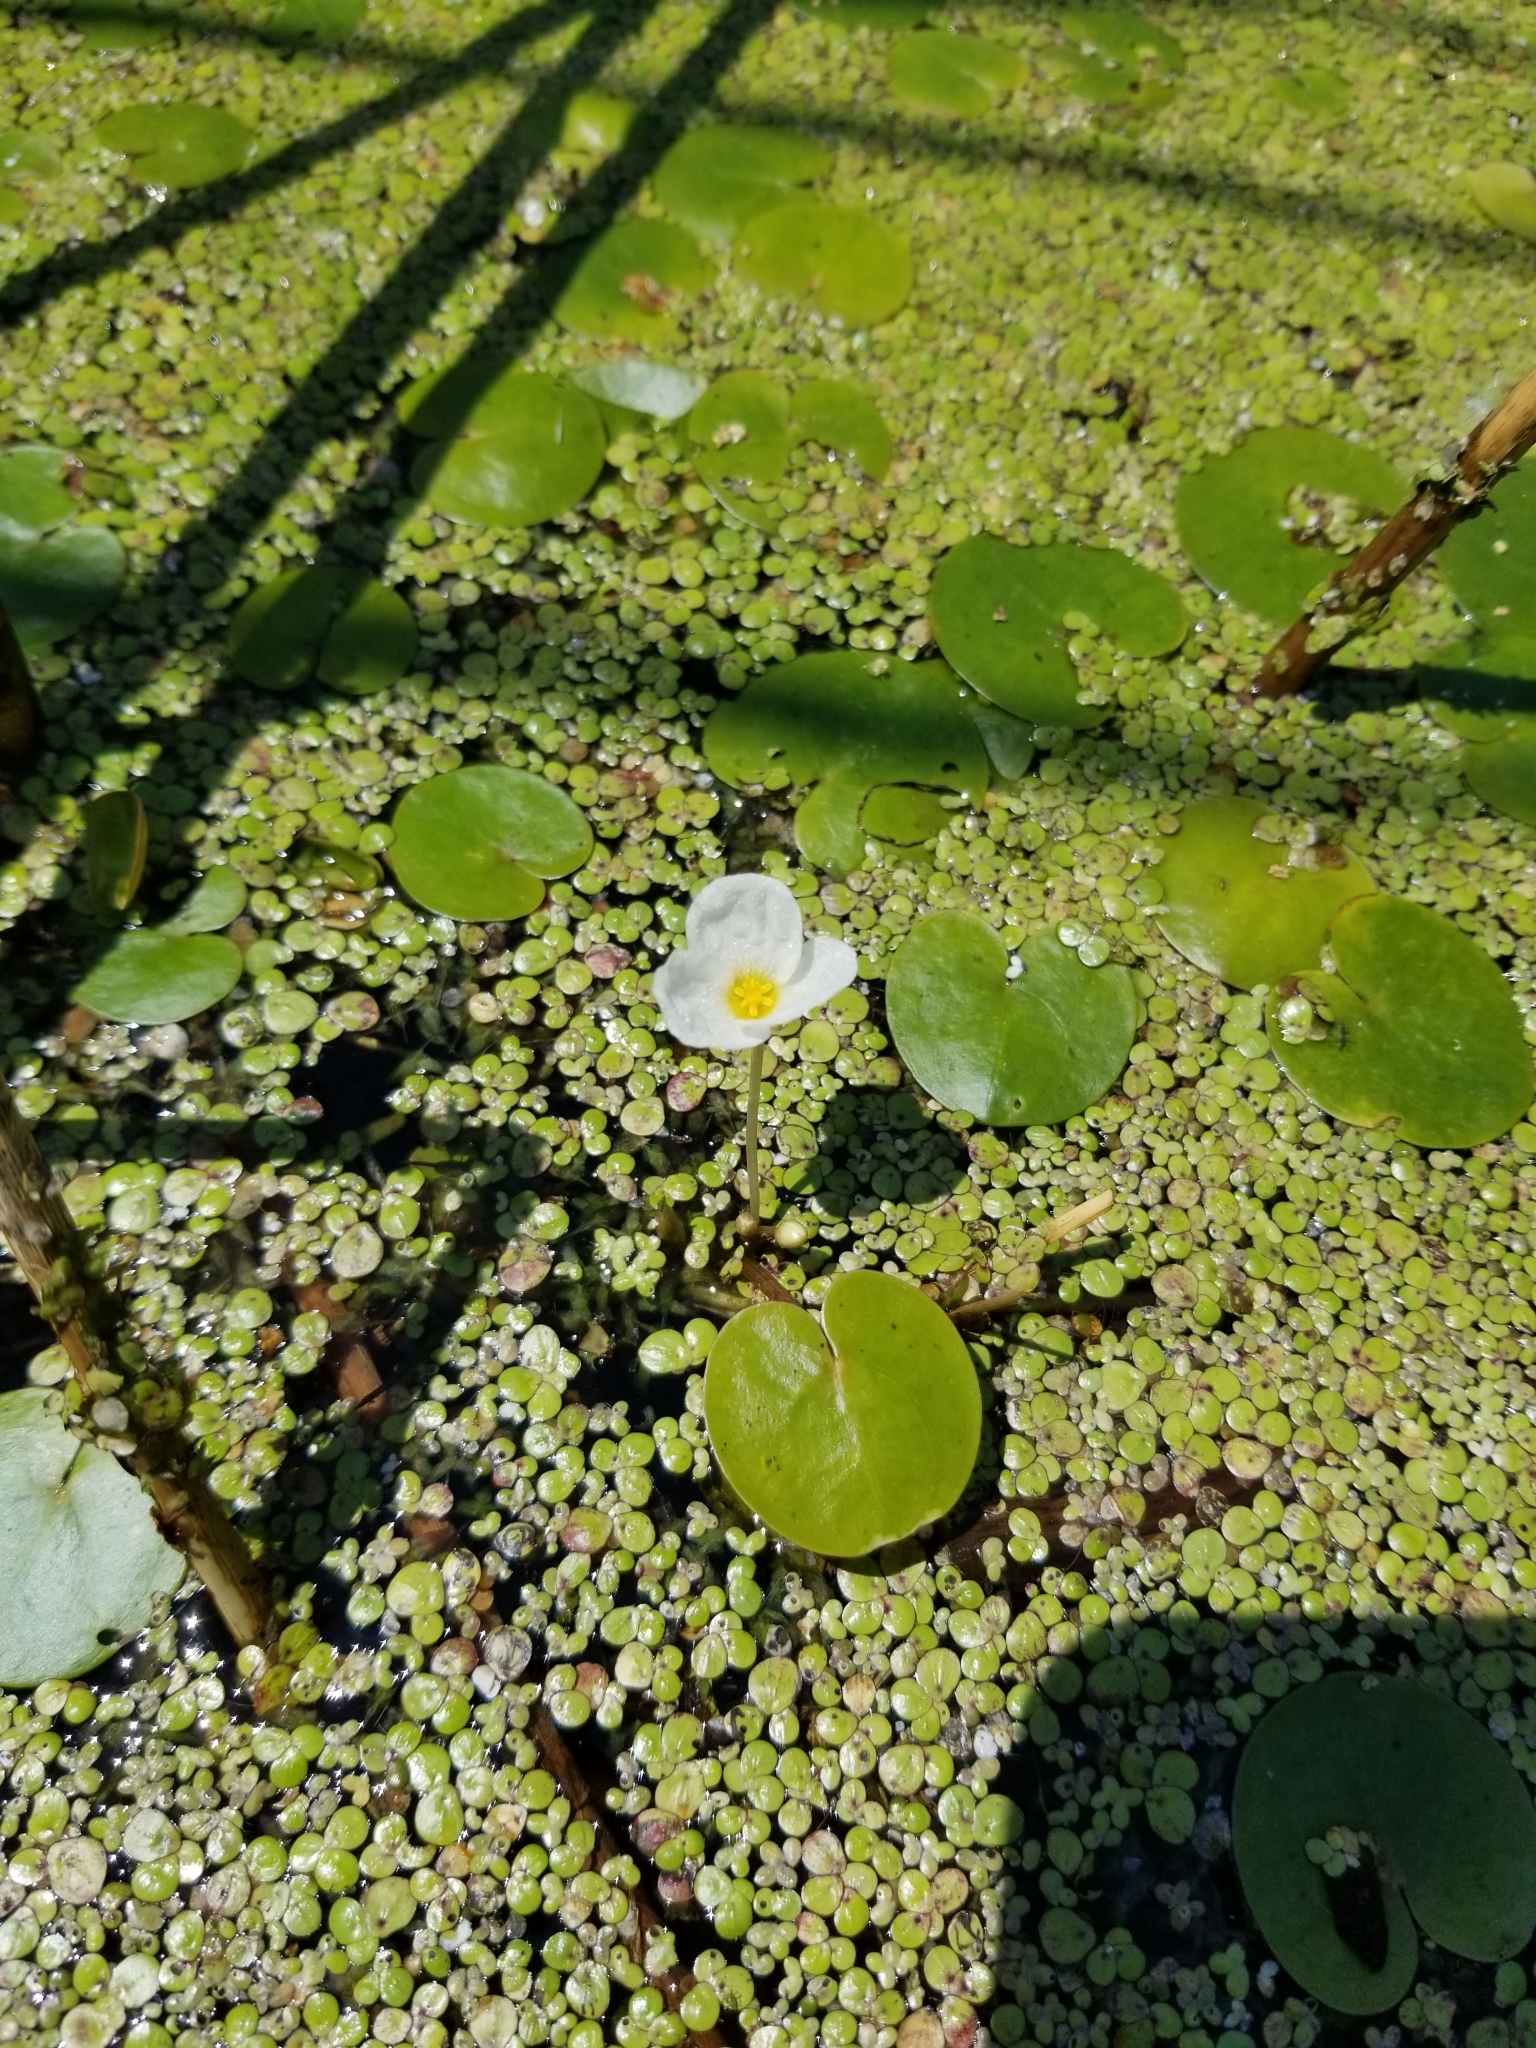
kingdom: Plantae
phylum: Tracheophyta
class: Liliopsida
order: Alismatales
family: Hydrocharitaceae
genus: Hydrocharis
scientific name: Hydrocharis morsus-ranae
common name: Frogbit
